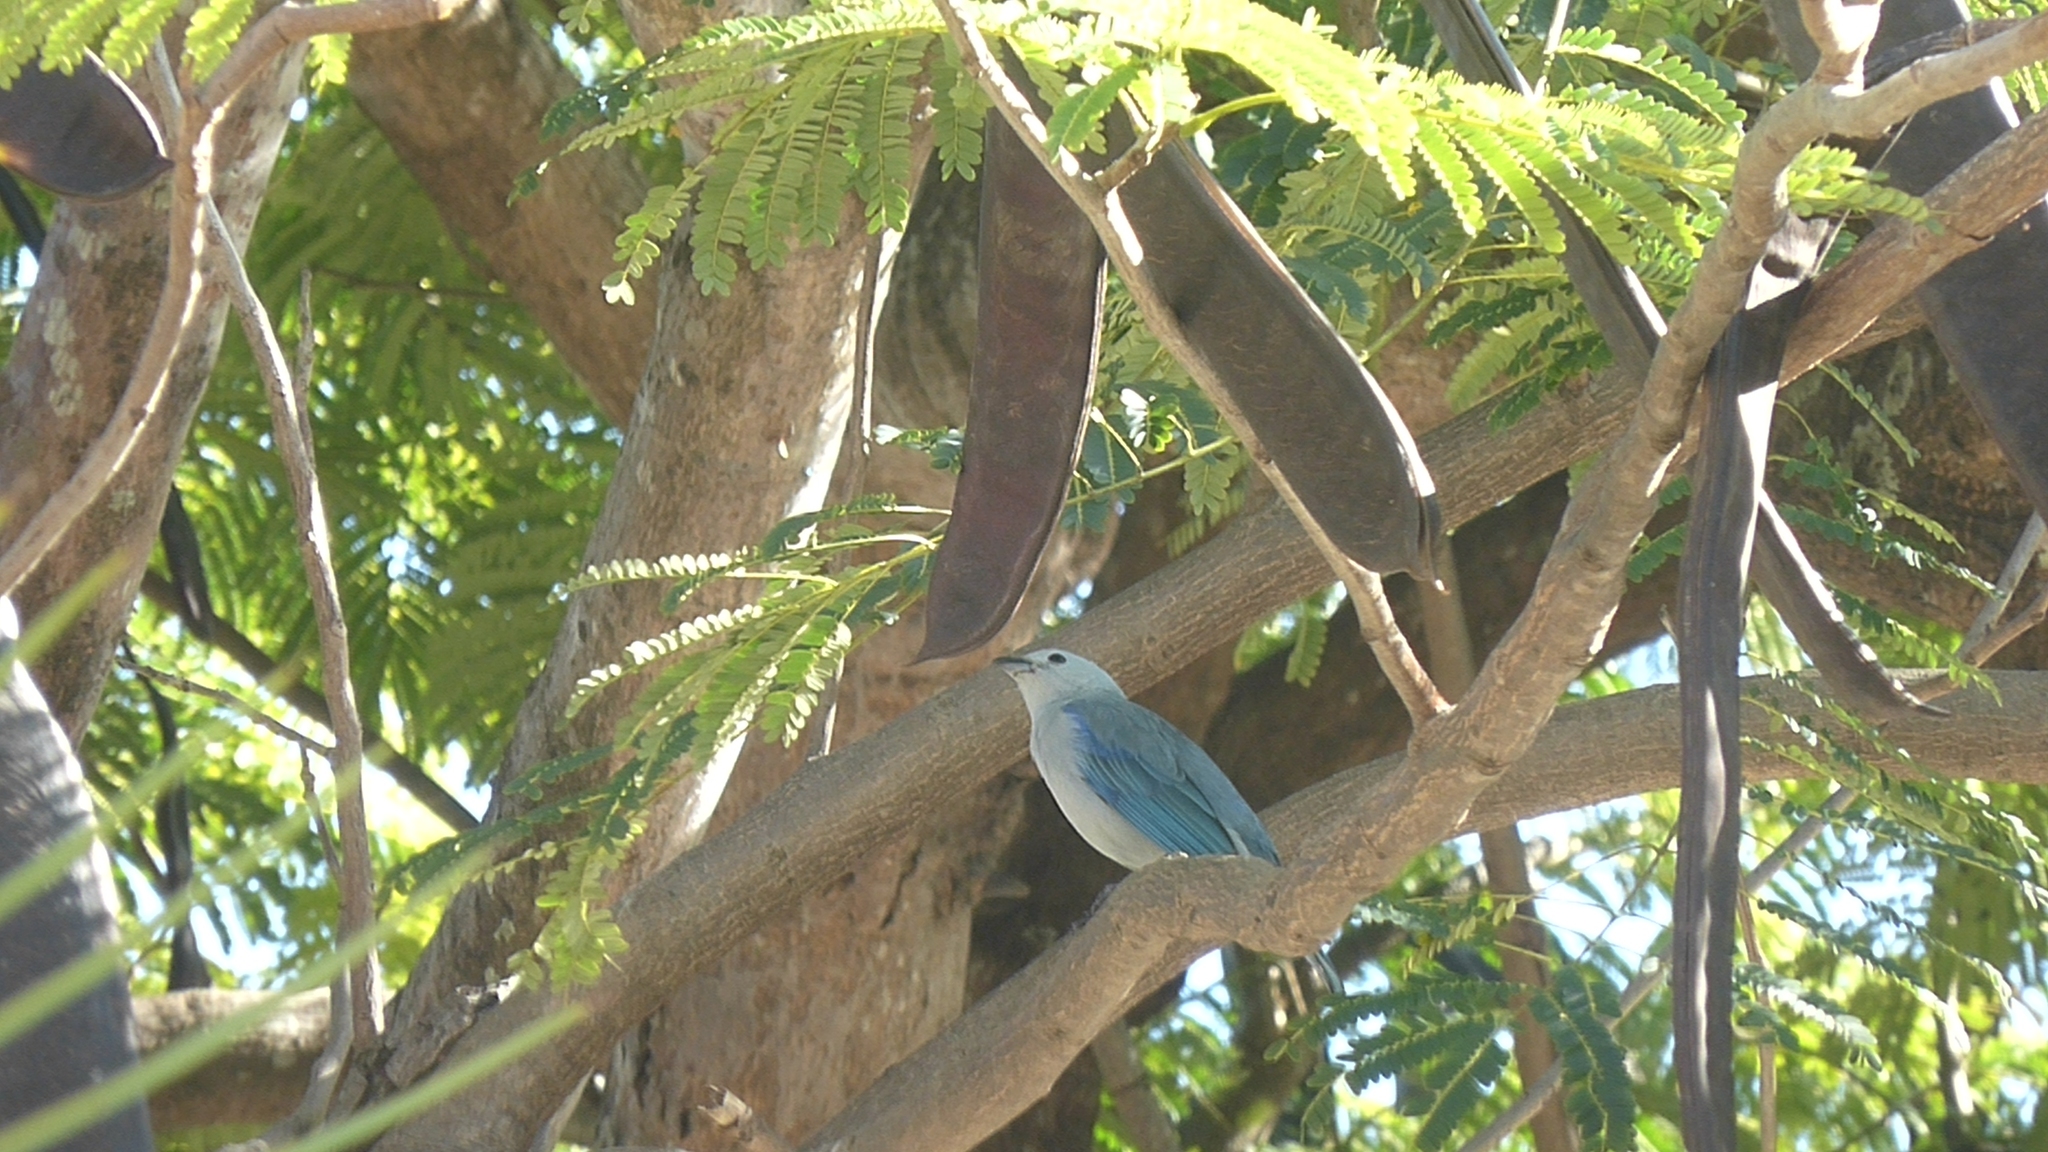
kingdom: Animalia
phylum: Chordata
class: Aves
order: Passeriformes
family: Thraupidae
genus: Thraupis
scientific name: Thraupis episcopus
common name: Blue-grey tanager
